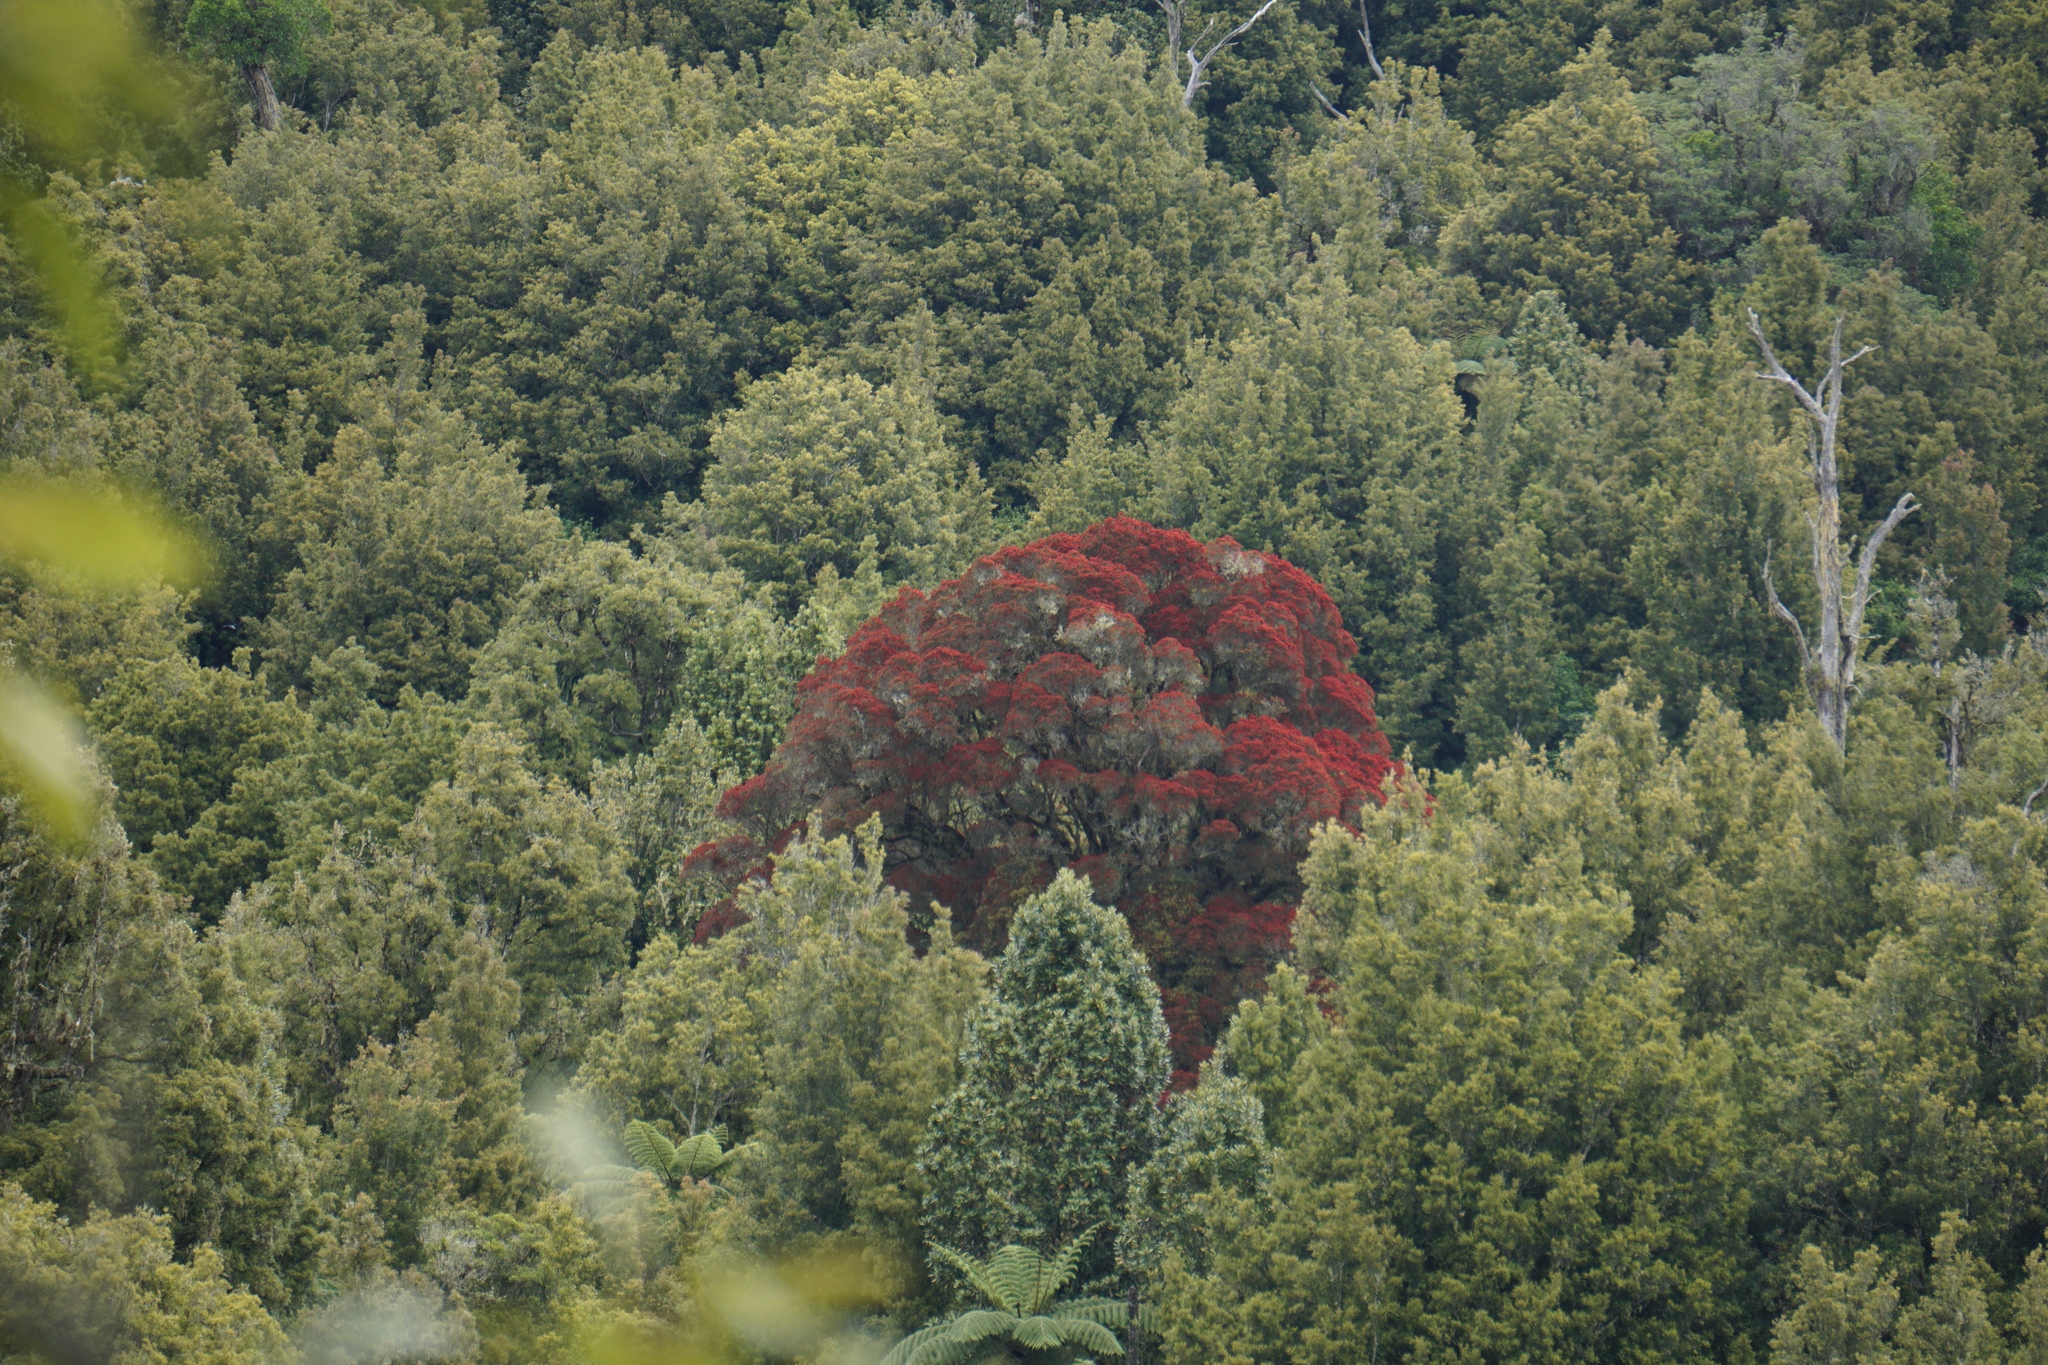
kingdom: Plantae
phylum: Tracheophyta
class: Magnoliopsida
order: Myrtales
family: Myrtaceae
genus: Metrosideros
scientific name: Metrosideros robusta
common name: Northern rata
